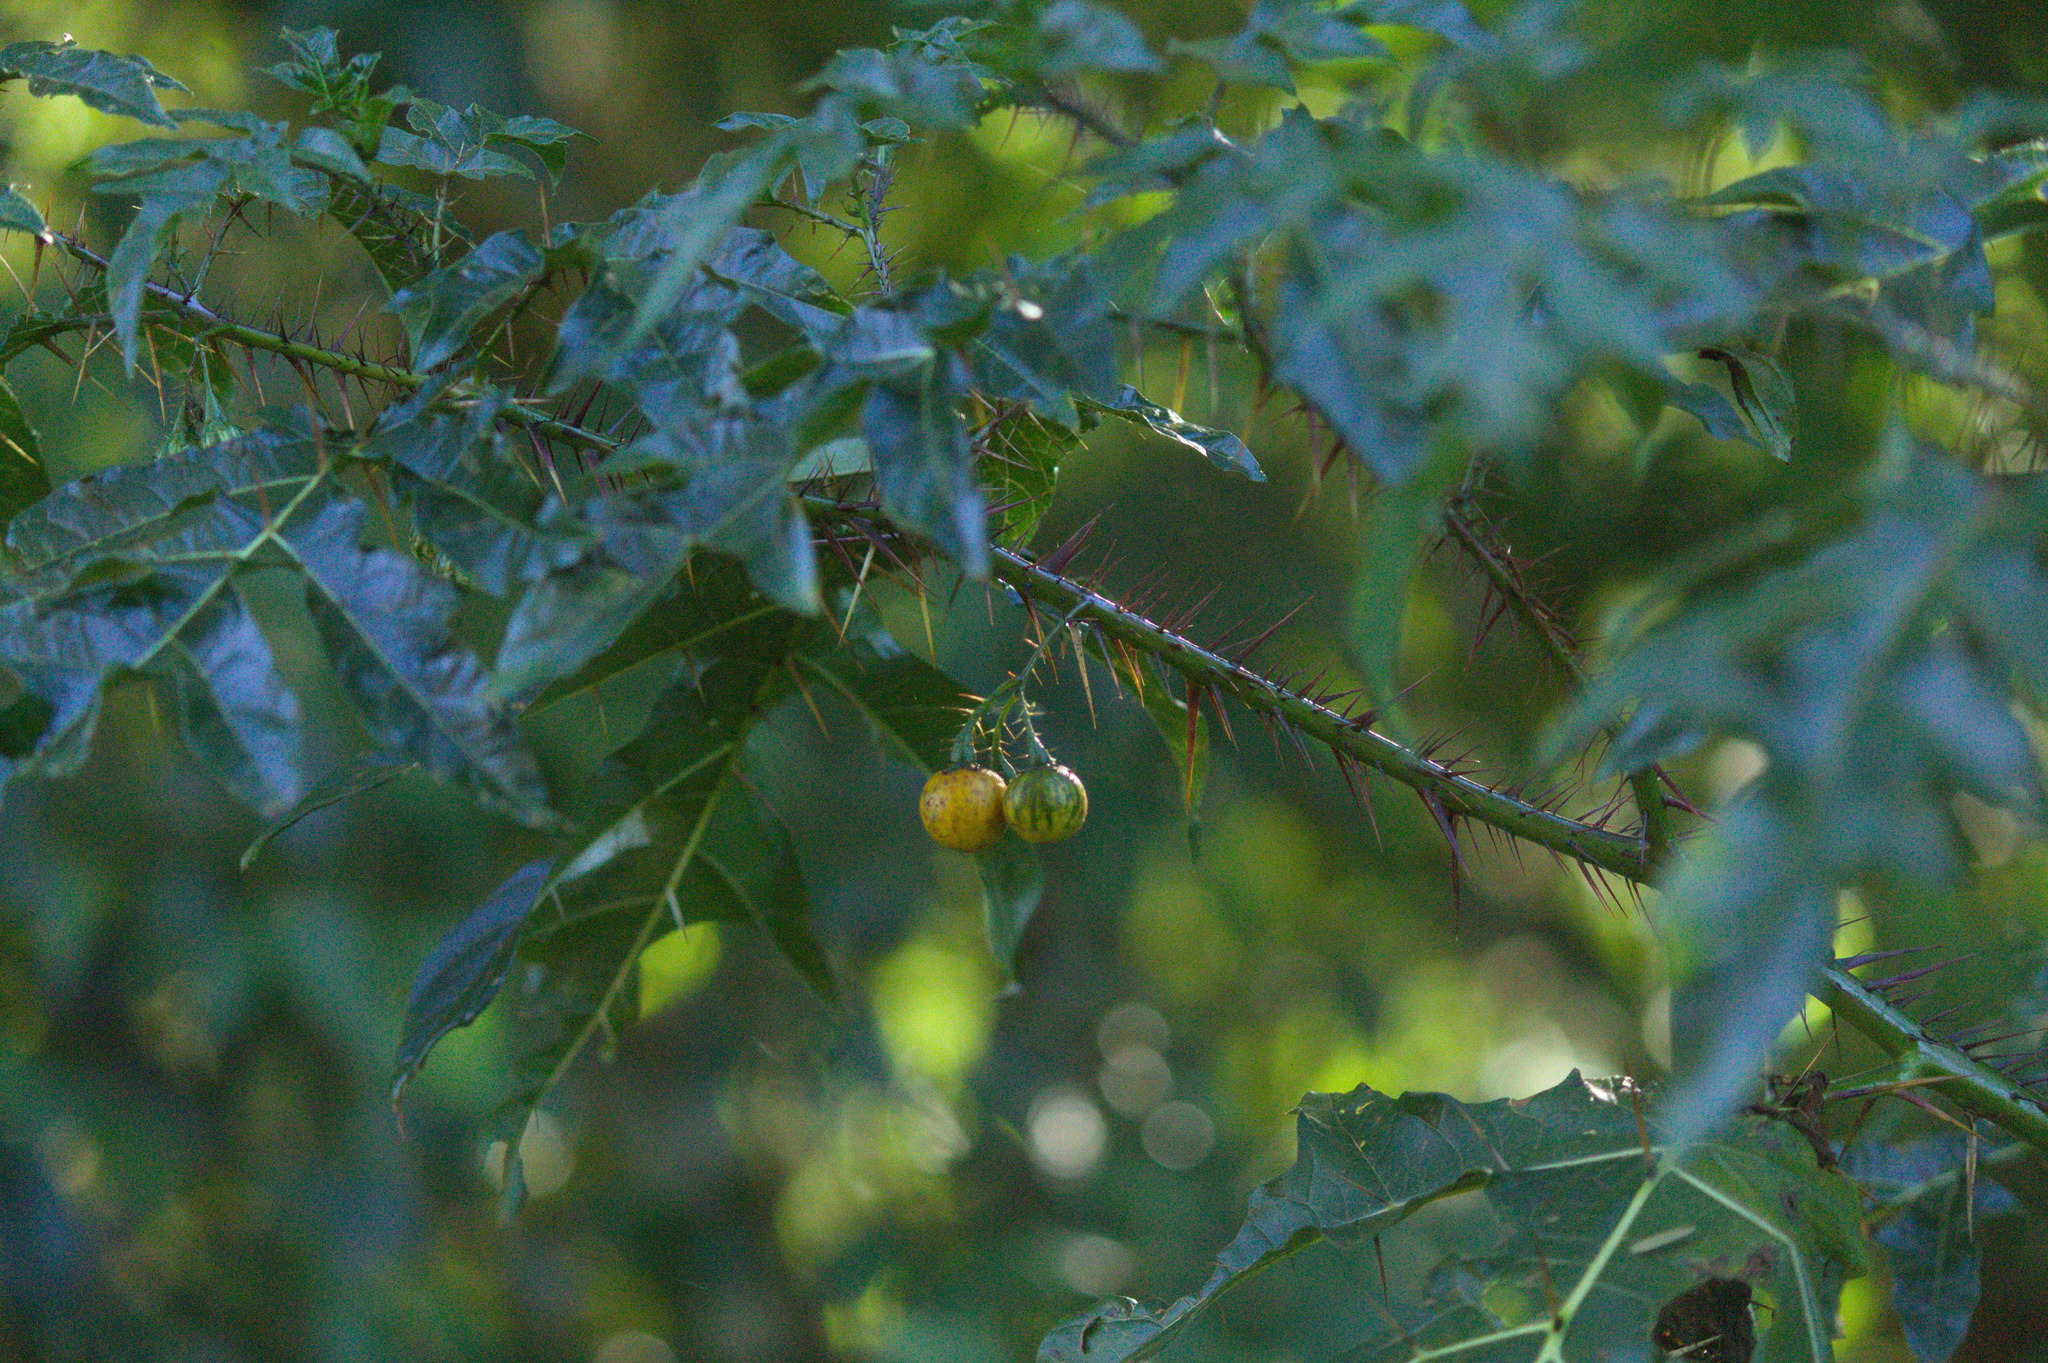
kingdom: Plantae
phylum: Tracheophyta
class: Magnoliopsida
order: Solanales
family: Solanaceae
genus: Solanum
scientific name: Solanum atropurpureum
